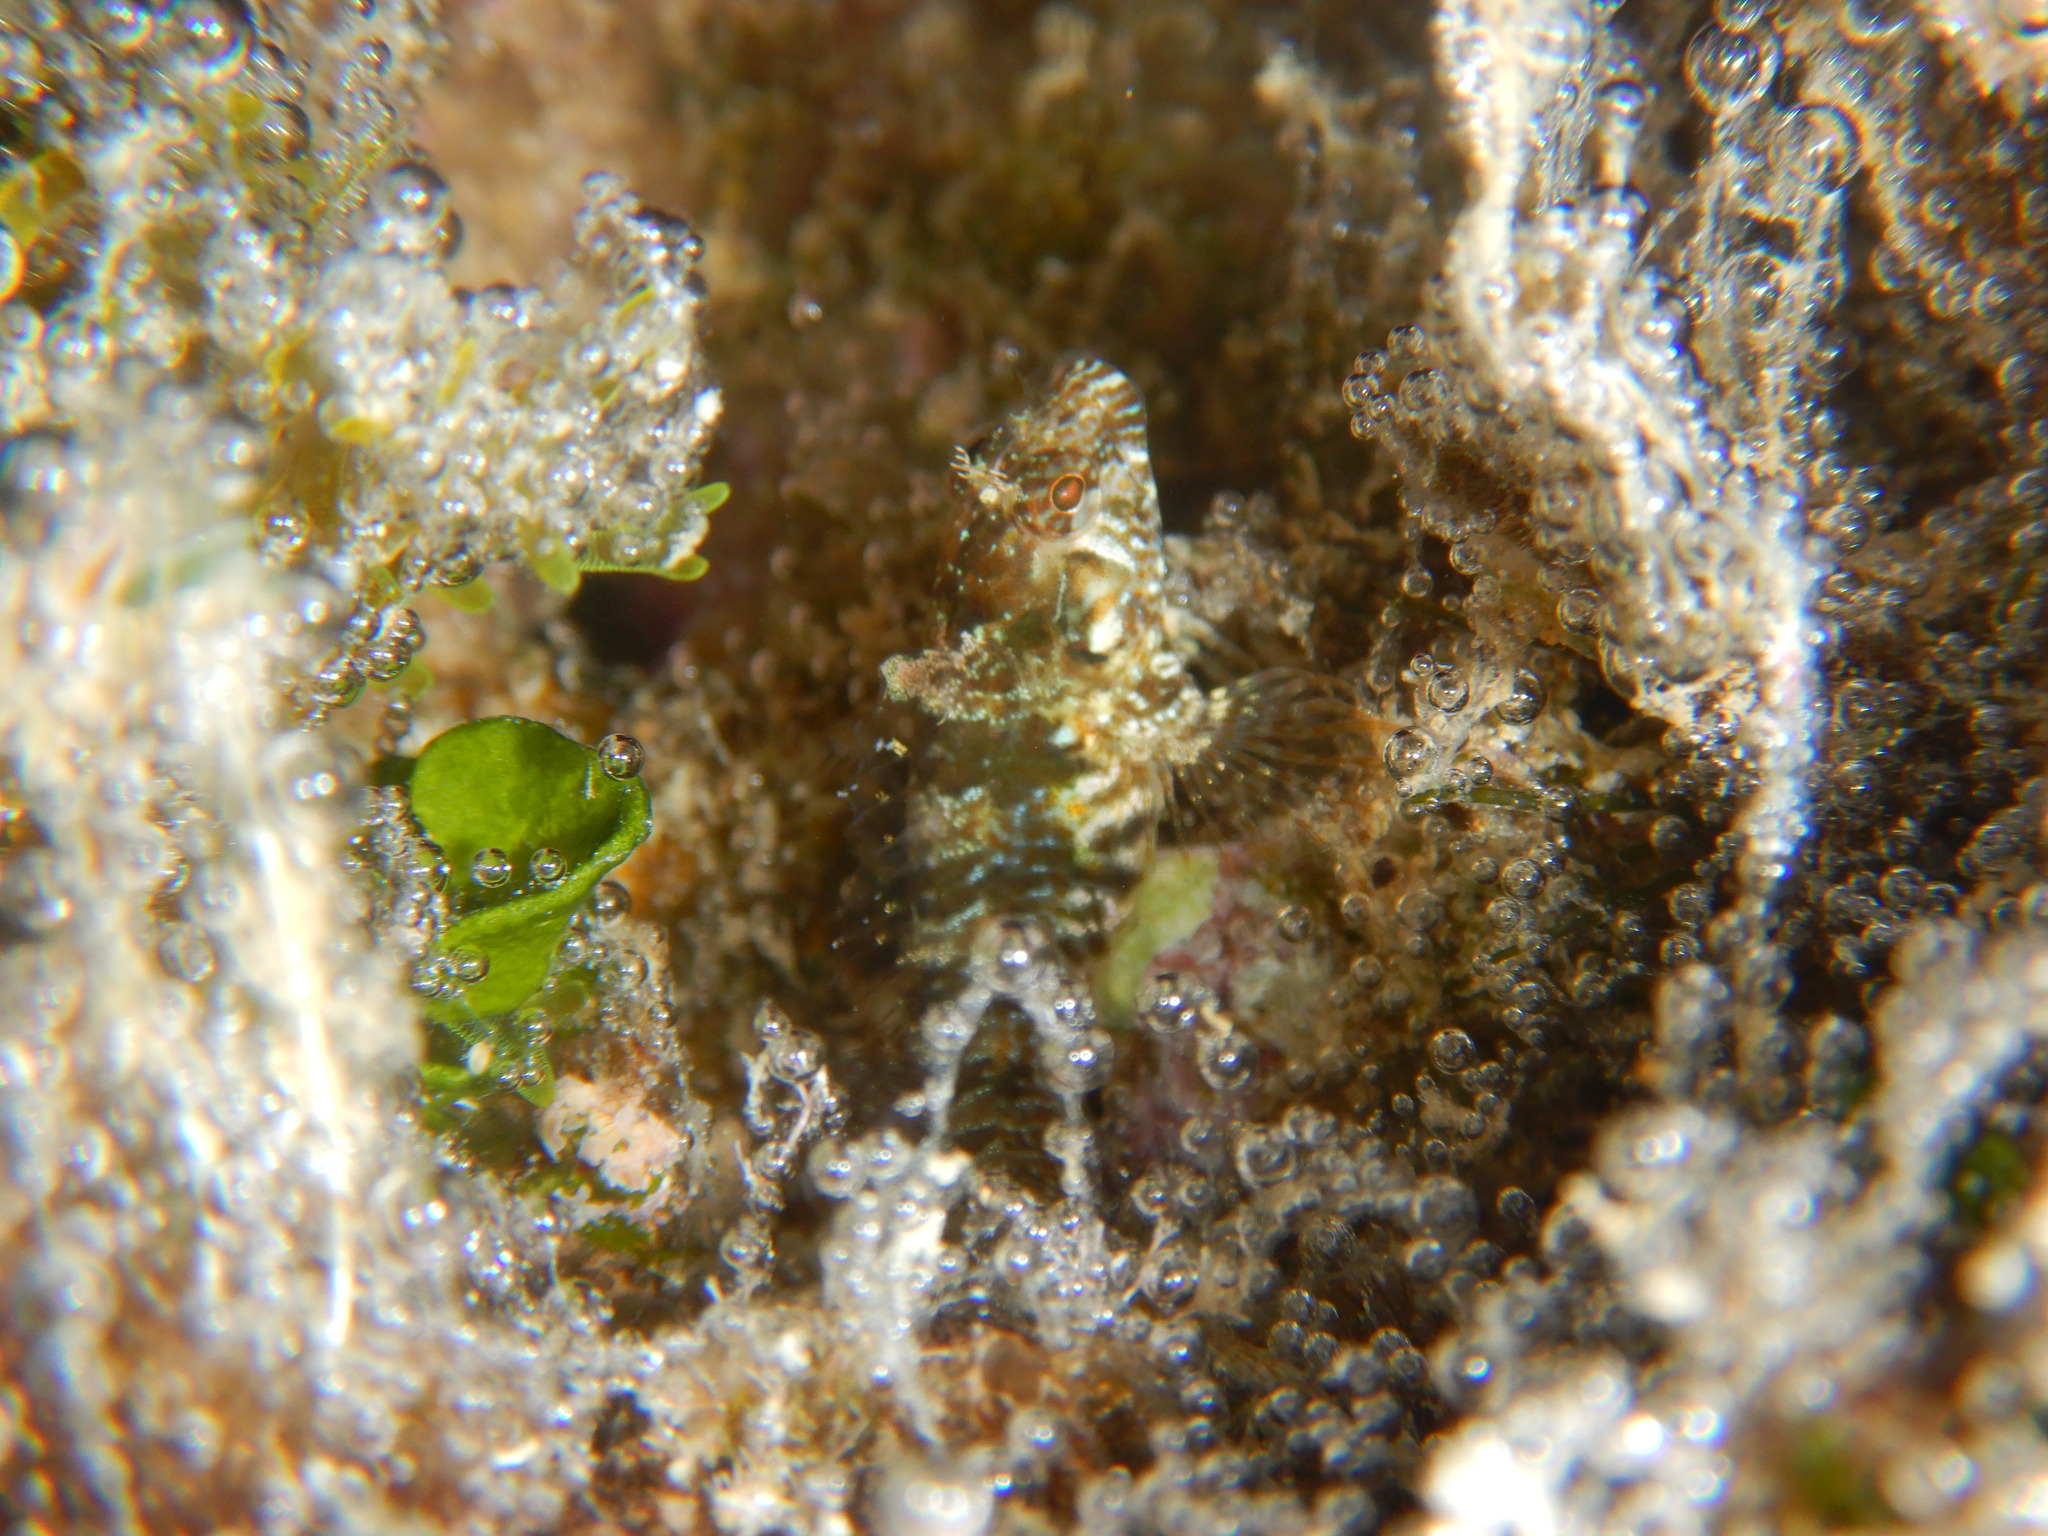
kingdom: Animalia
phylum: Chordata
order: Perciformes
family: Blenniidae
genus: Parablennius
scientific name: Parablennius incognitus
